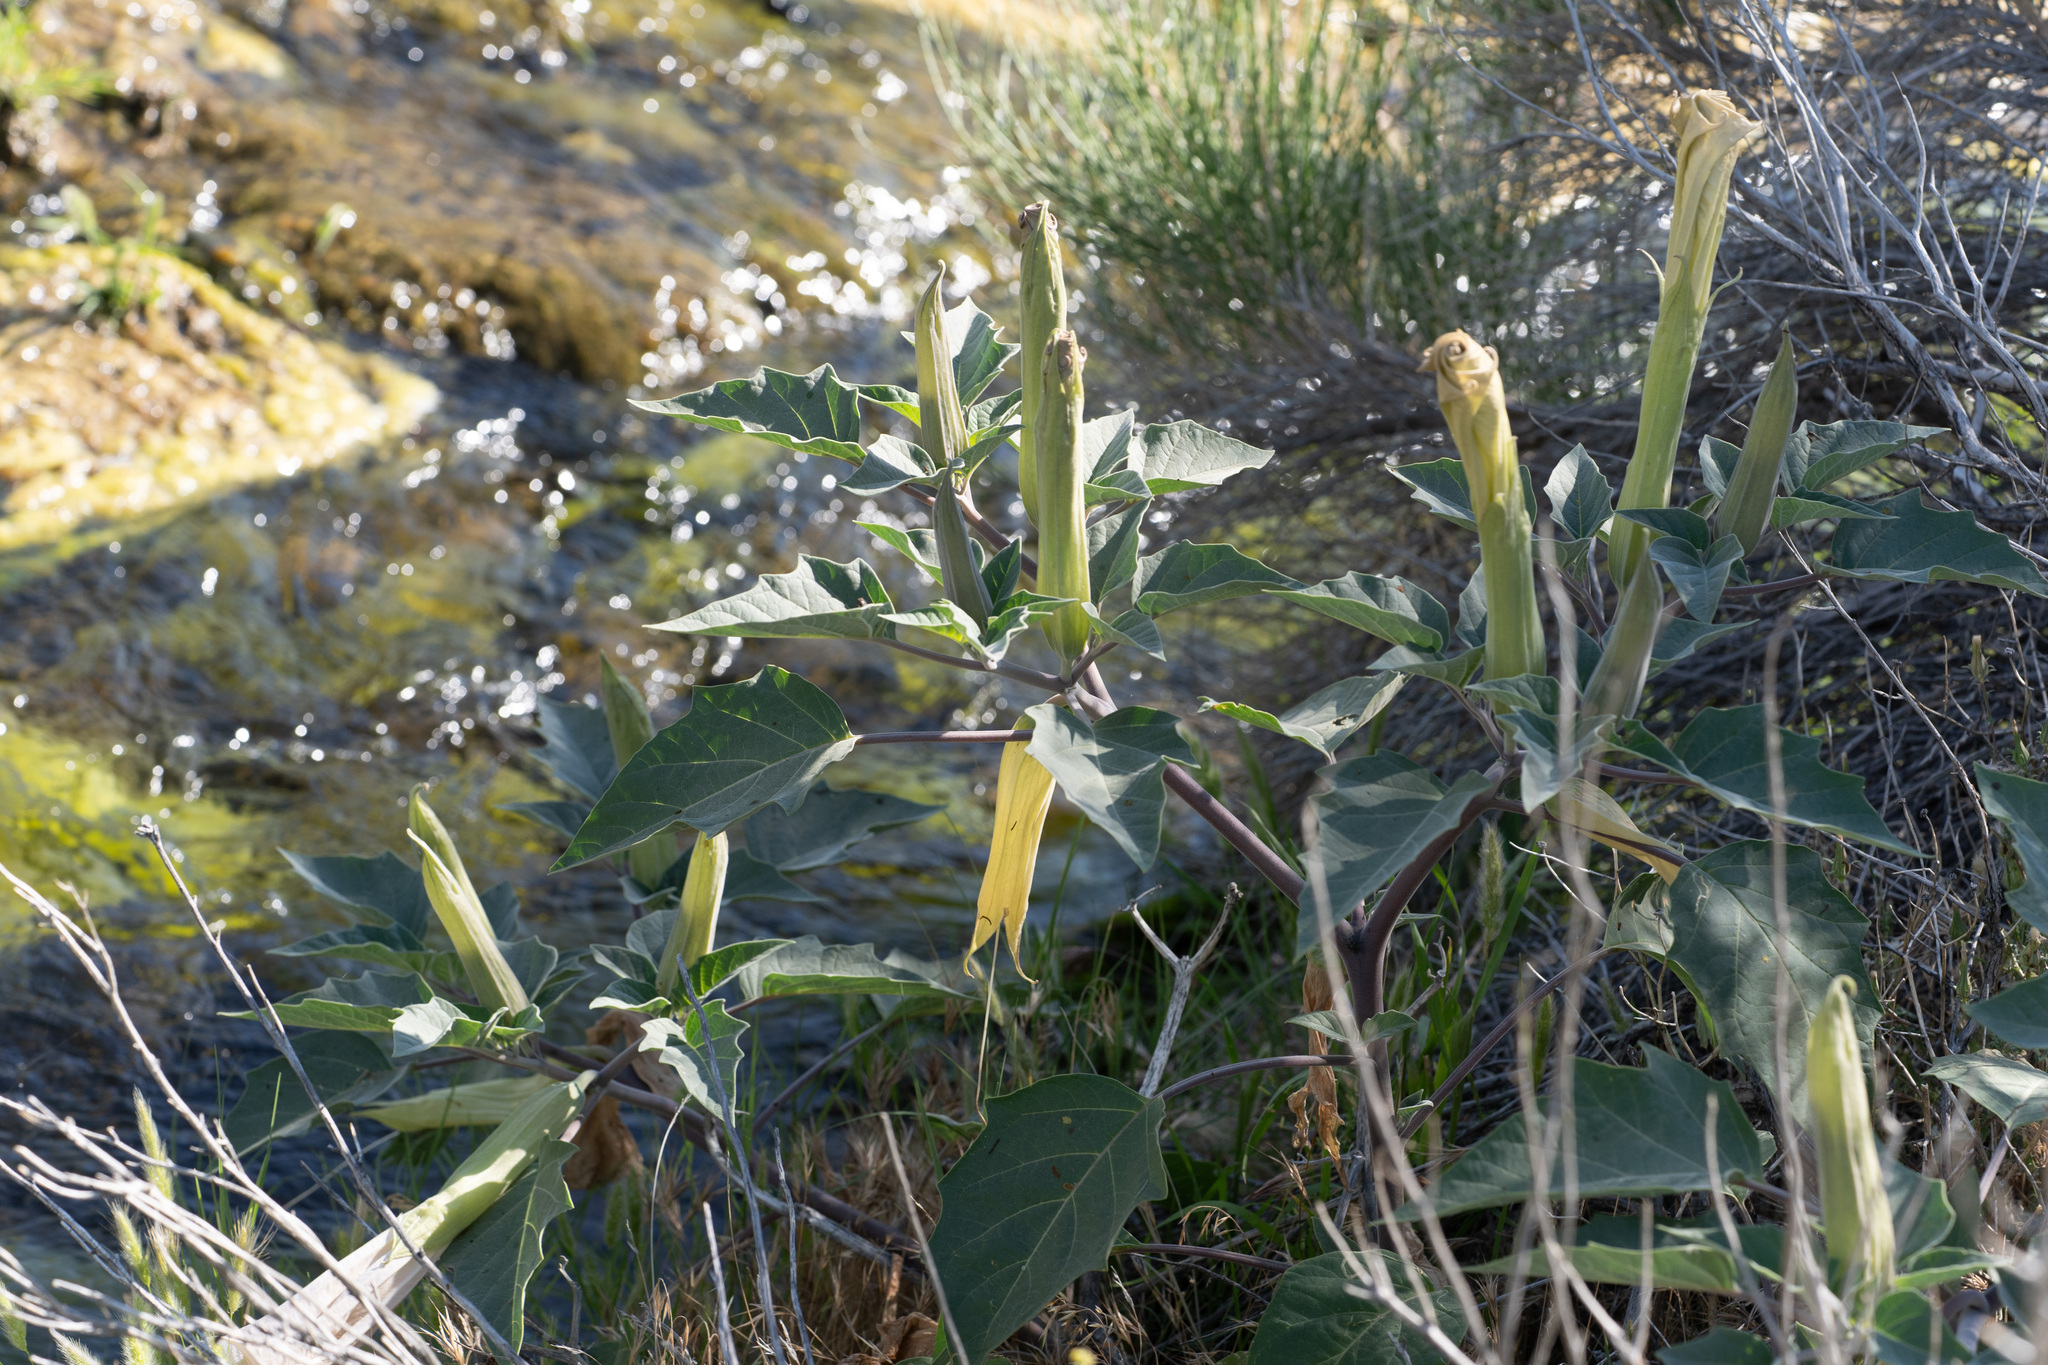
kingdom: Plantae
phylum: Tracheophyta
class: Magnoliopsida
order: Solanales
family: Solanaceae
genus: Datura
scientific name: Datura wrightii
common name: Sacred thorn-apple
